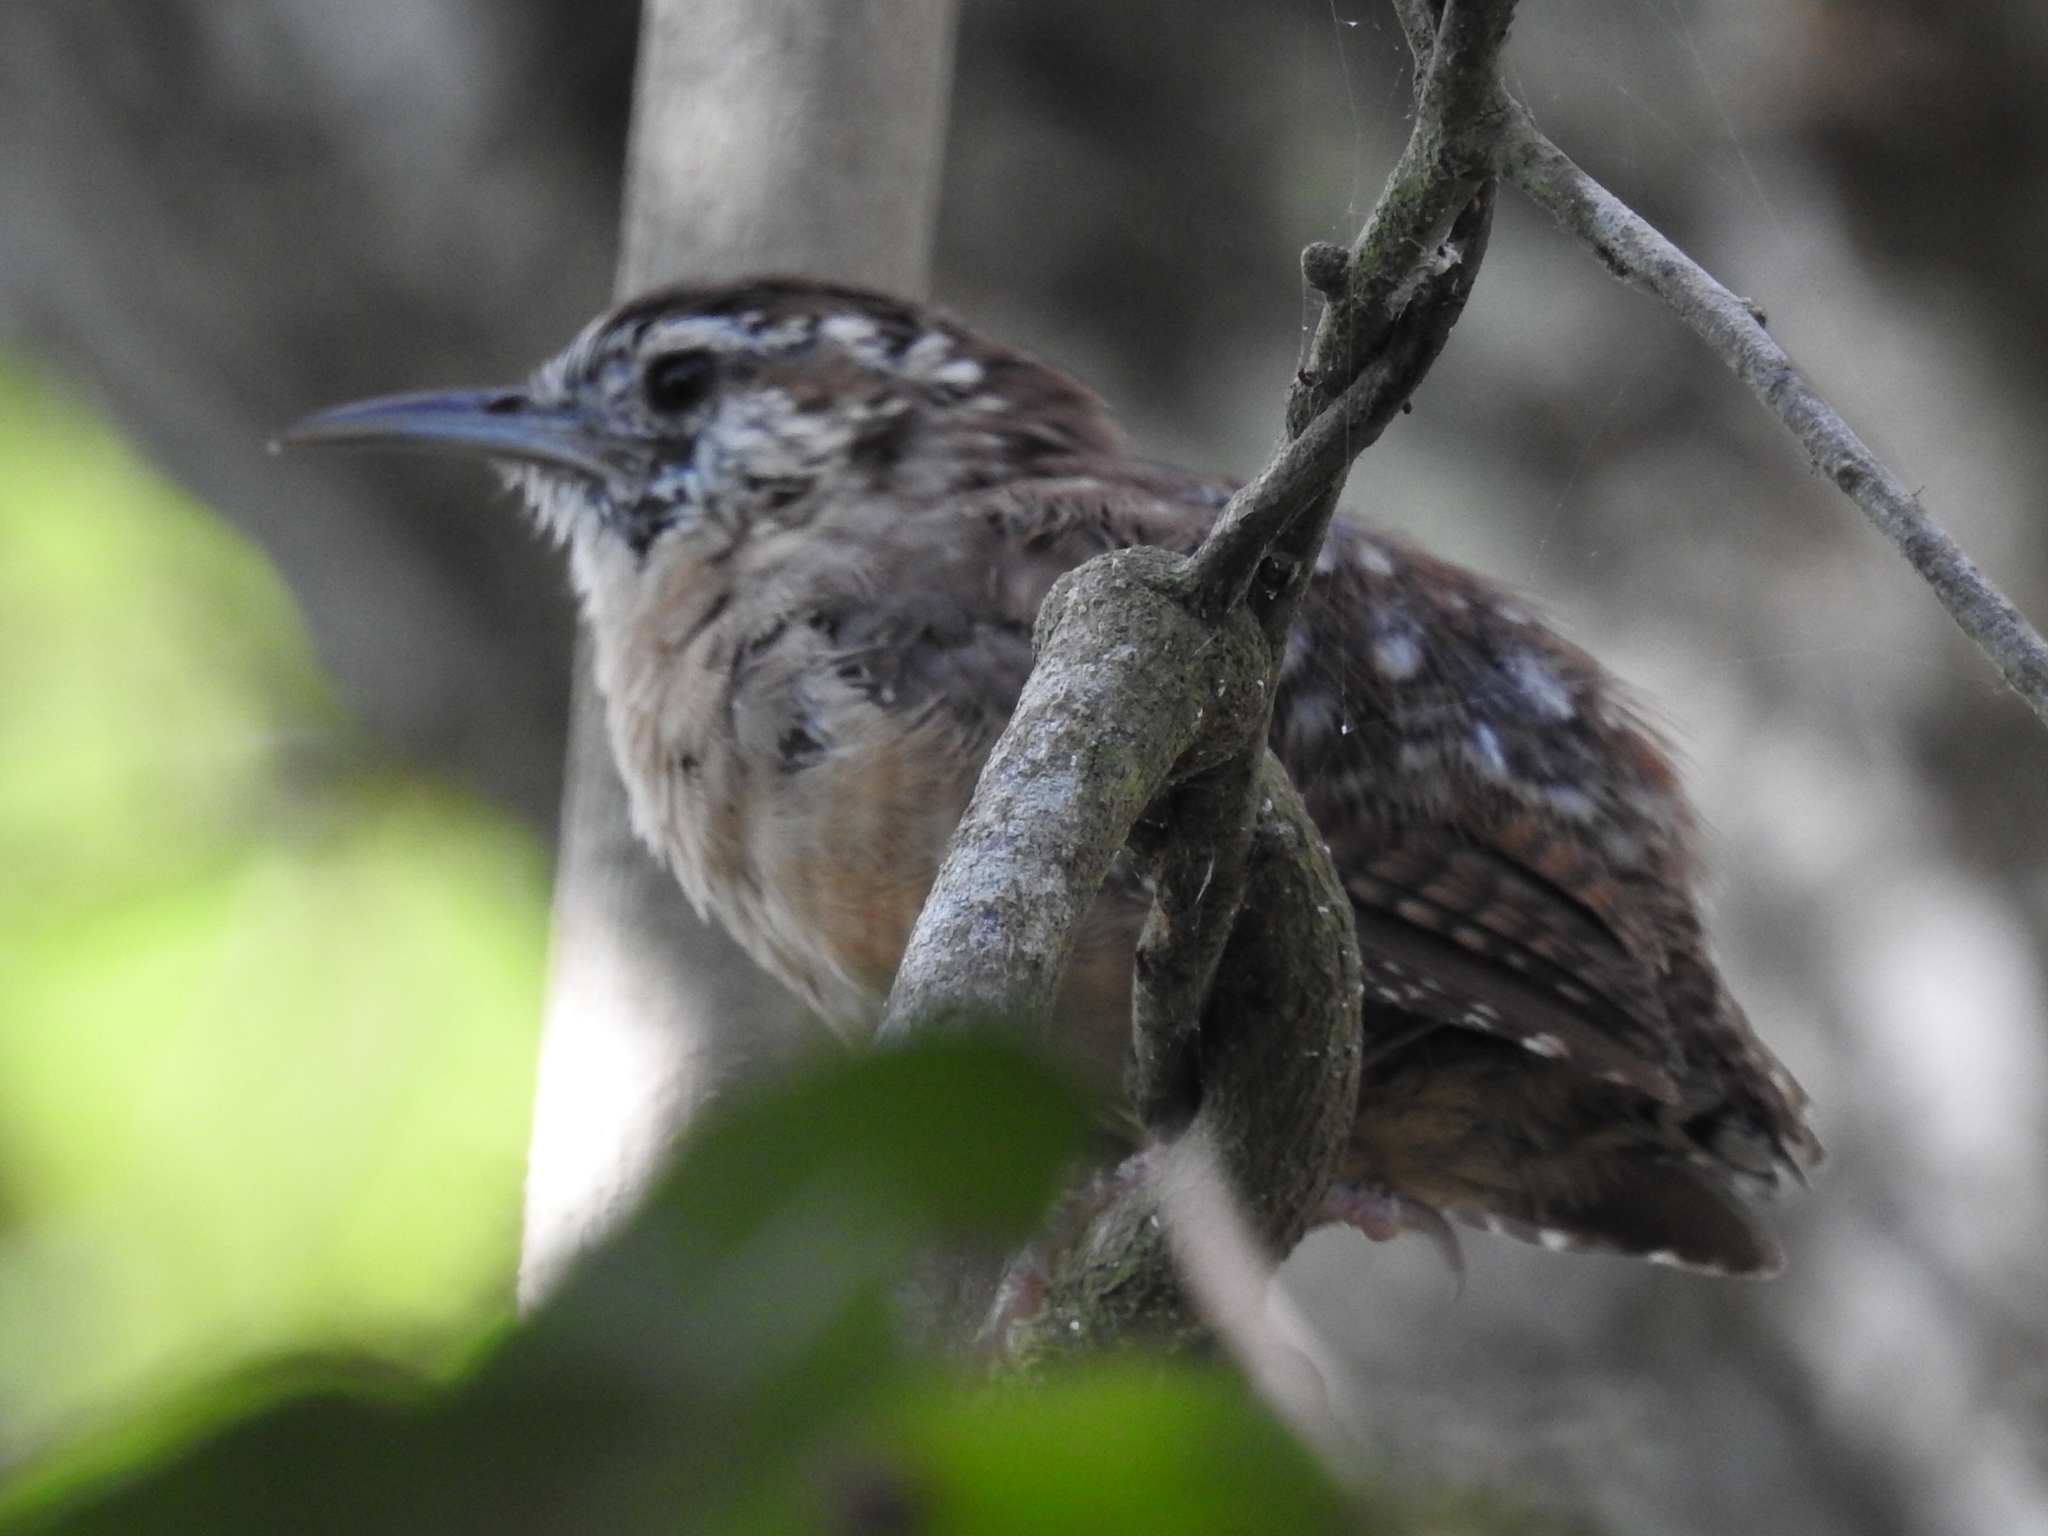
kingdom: Animalia
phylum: Chordata
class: Aves
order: Passeriformes
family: Troglodytidae
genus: Thryothorus
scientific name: Thryothorus ludovicianus
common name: Carolina wren
